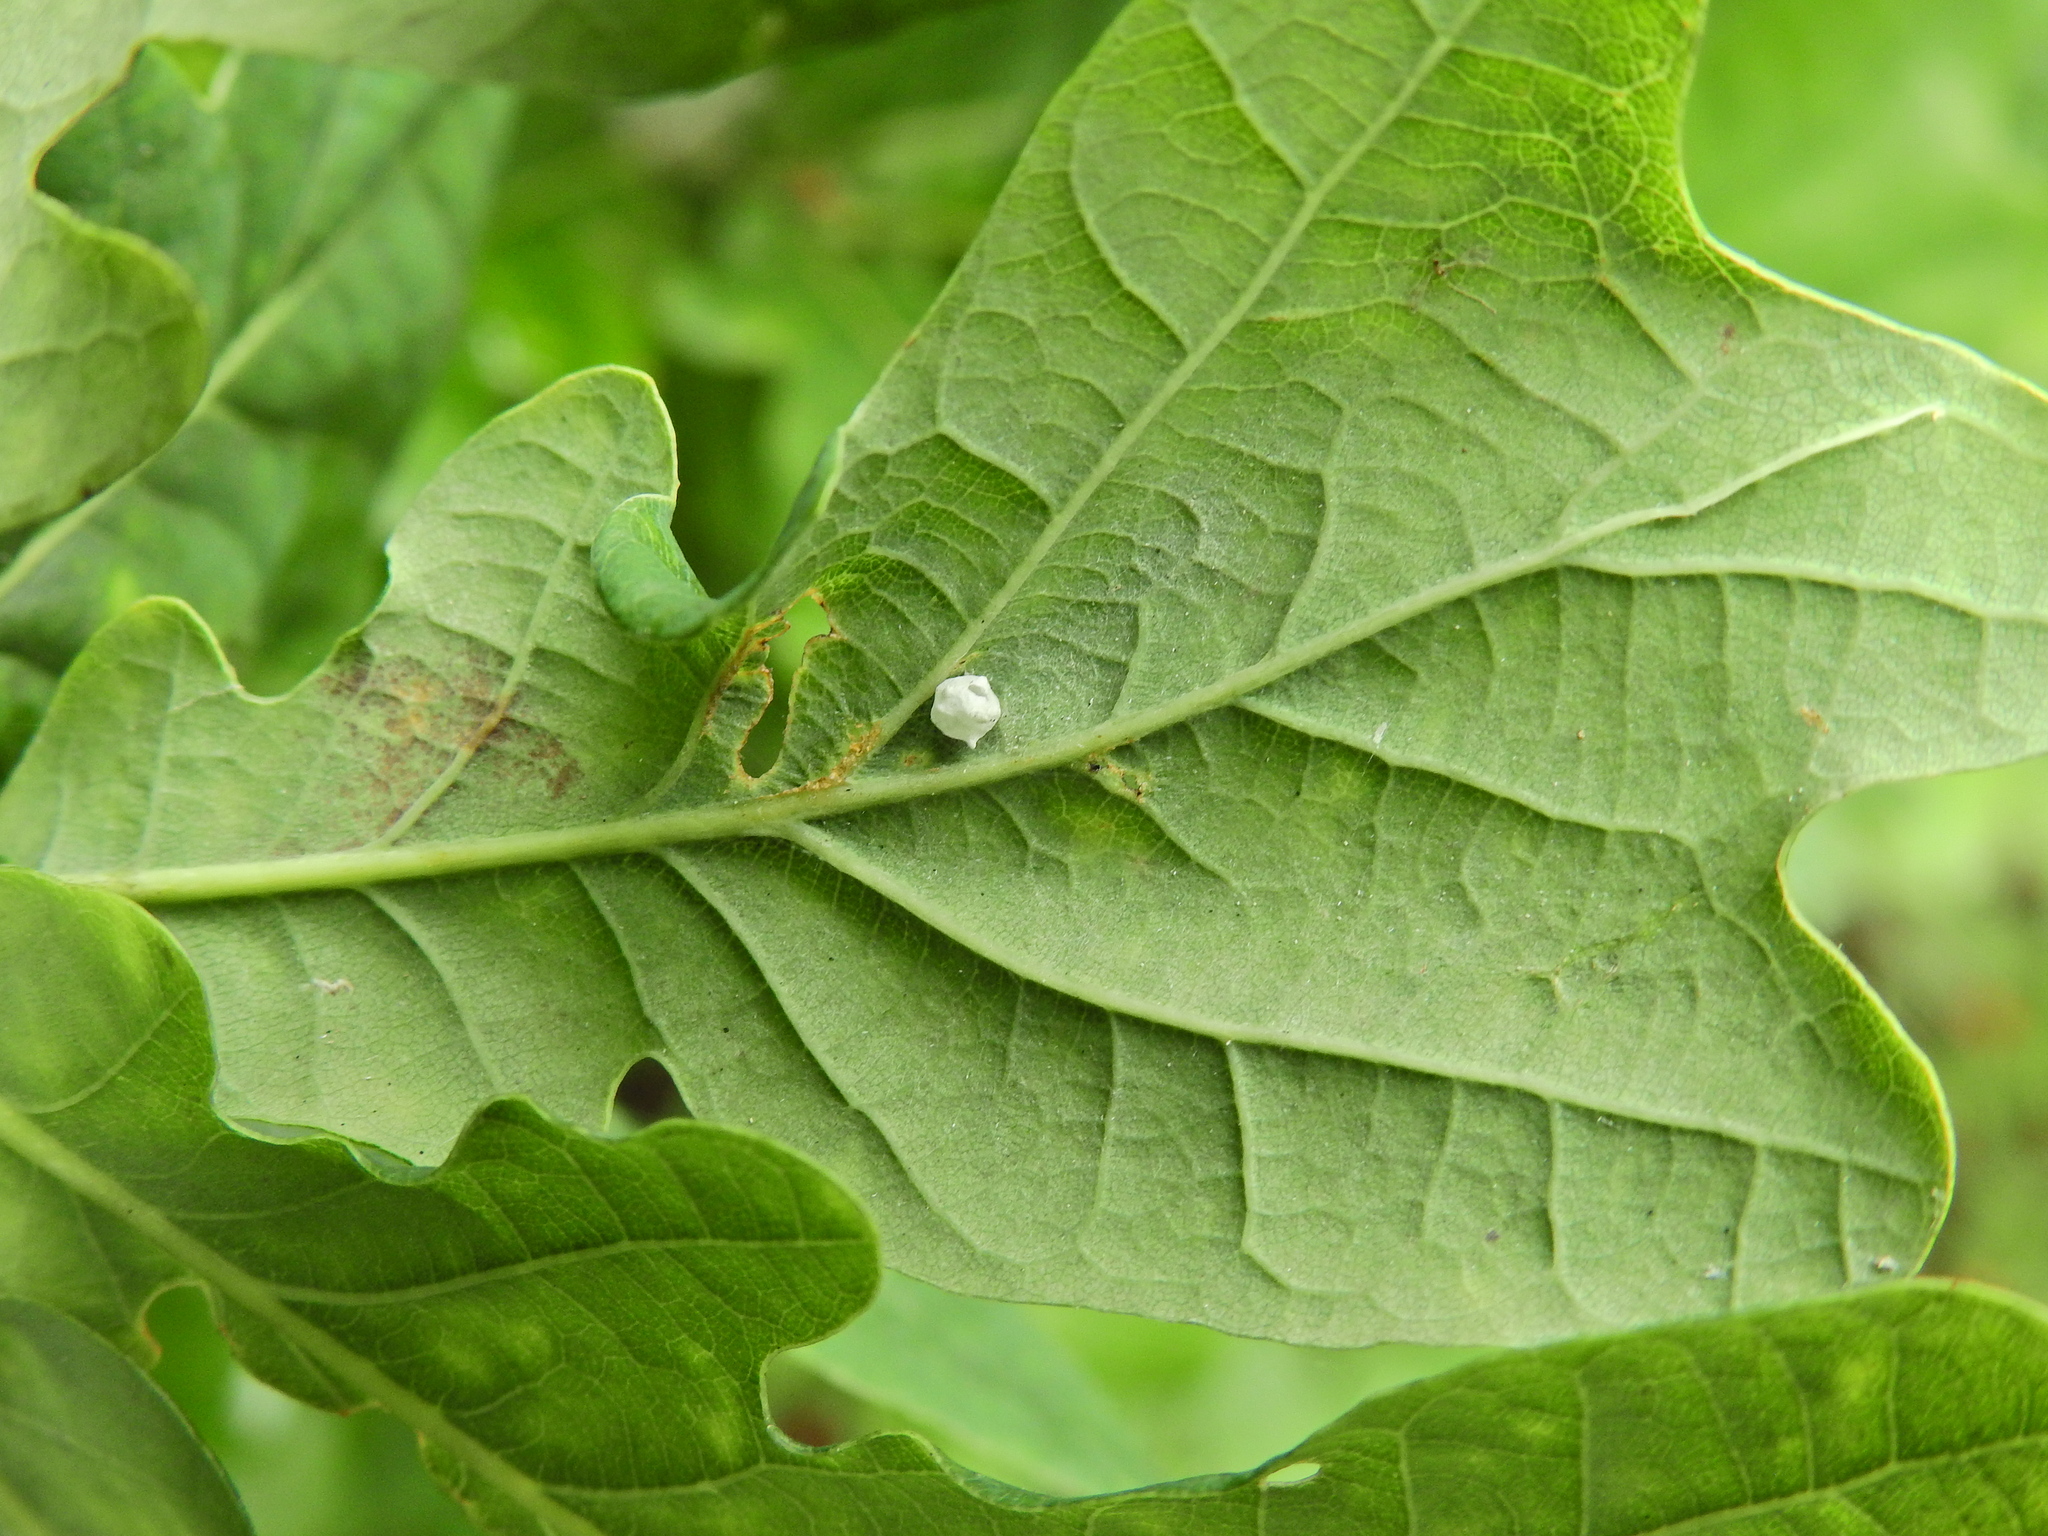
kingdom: Animalia
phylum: Arthropoda
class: Arachnida
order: Araneae
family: Theridiidae
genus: Paidiscura
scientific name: Paidiscura pallens
